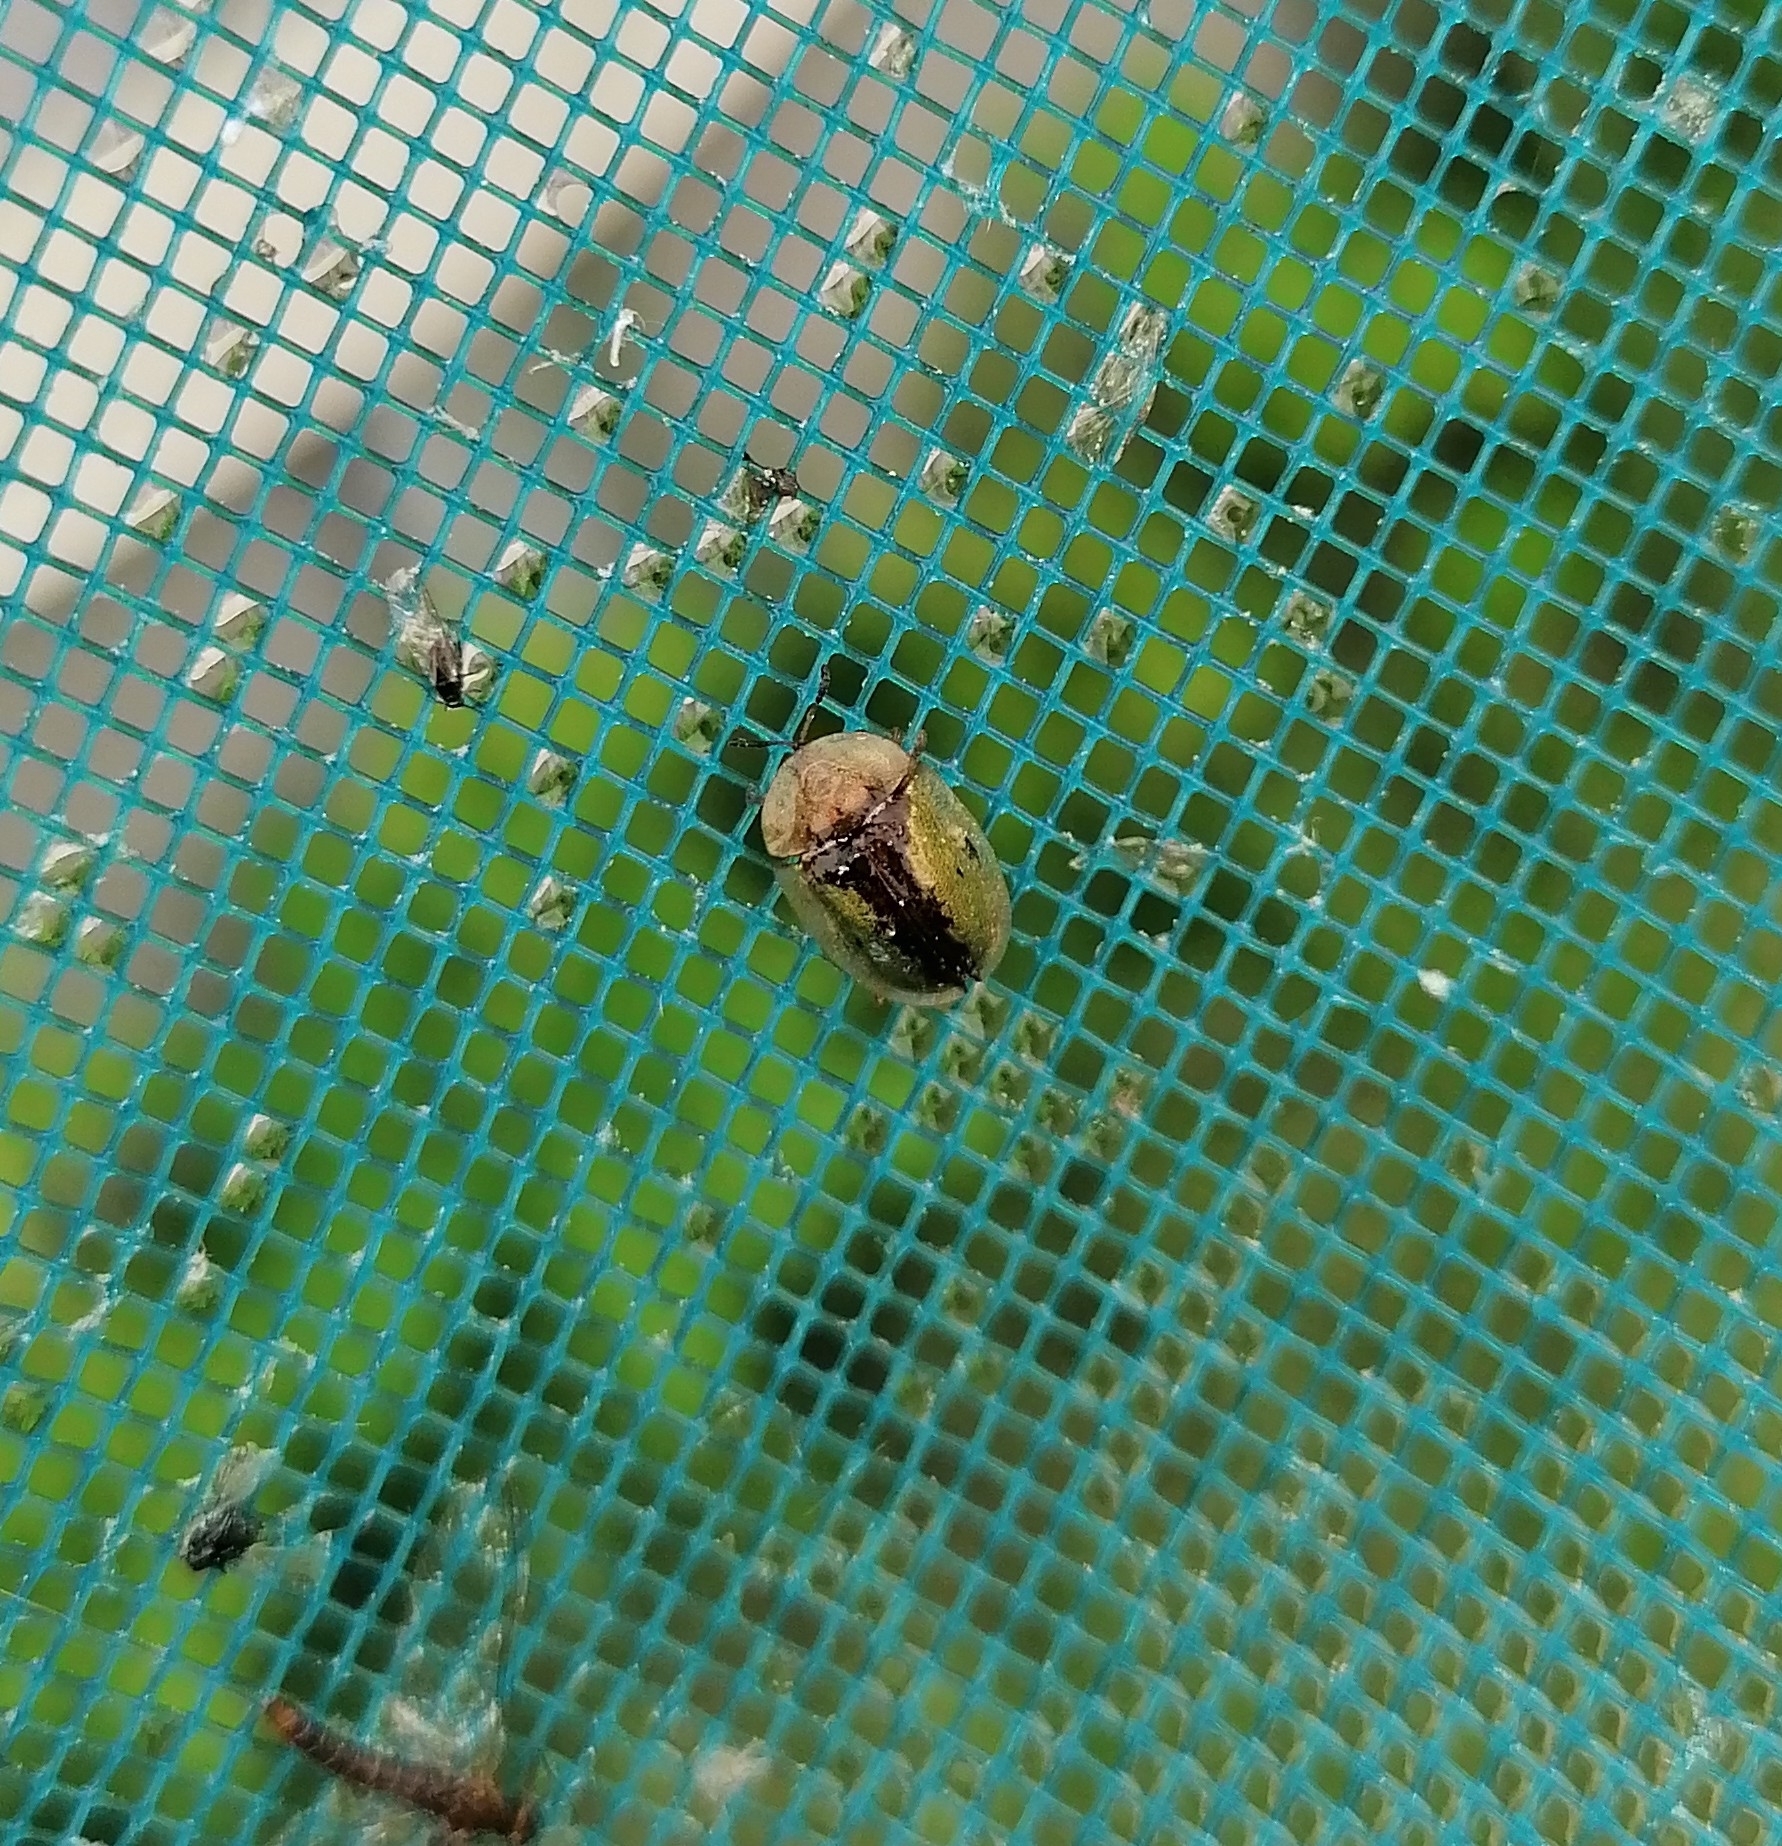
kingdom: Animalia
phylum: Arthropoda
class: Insecta
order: Coleoptera
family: Chrysomelidae
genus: Cassida
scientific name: Cassida vibex
